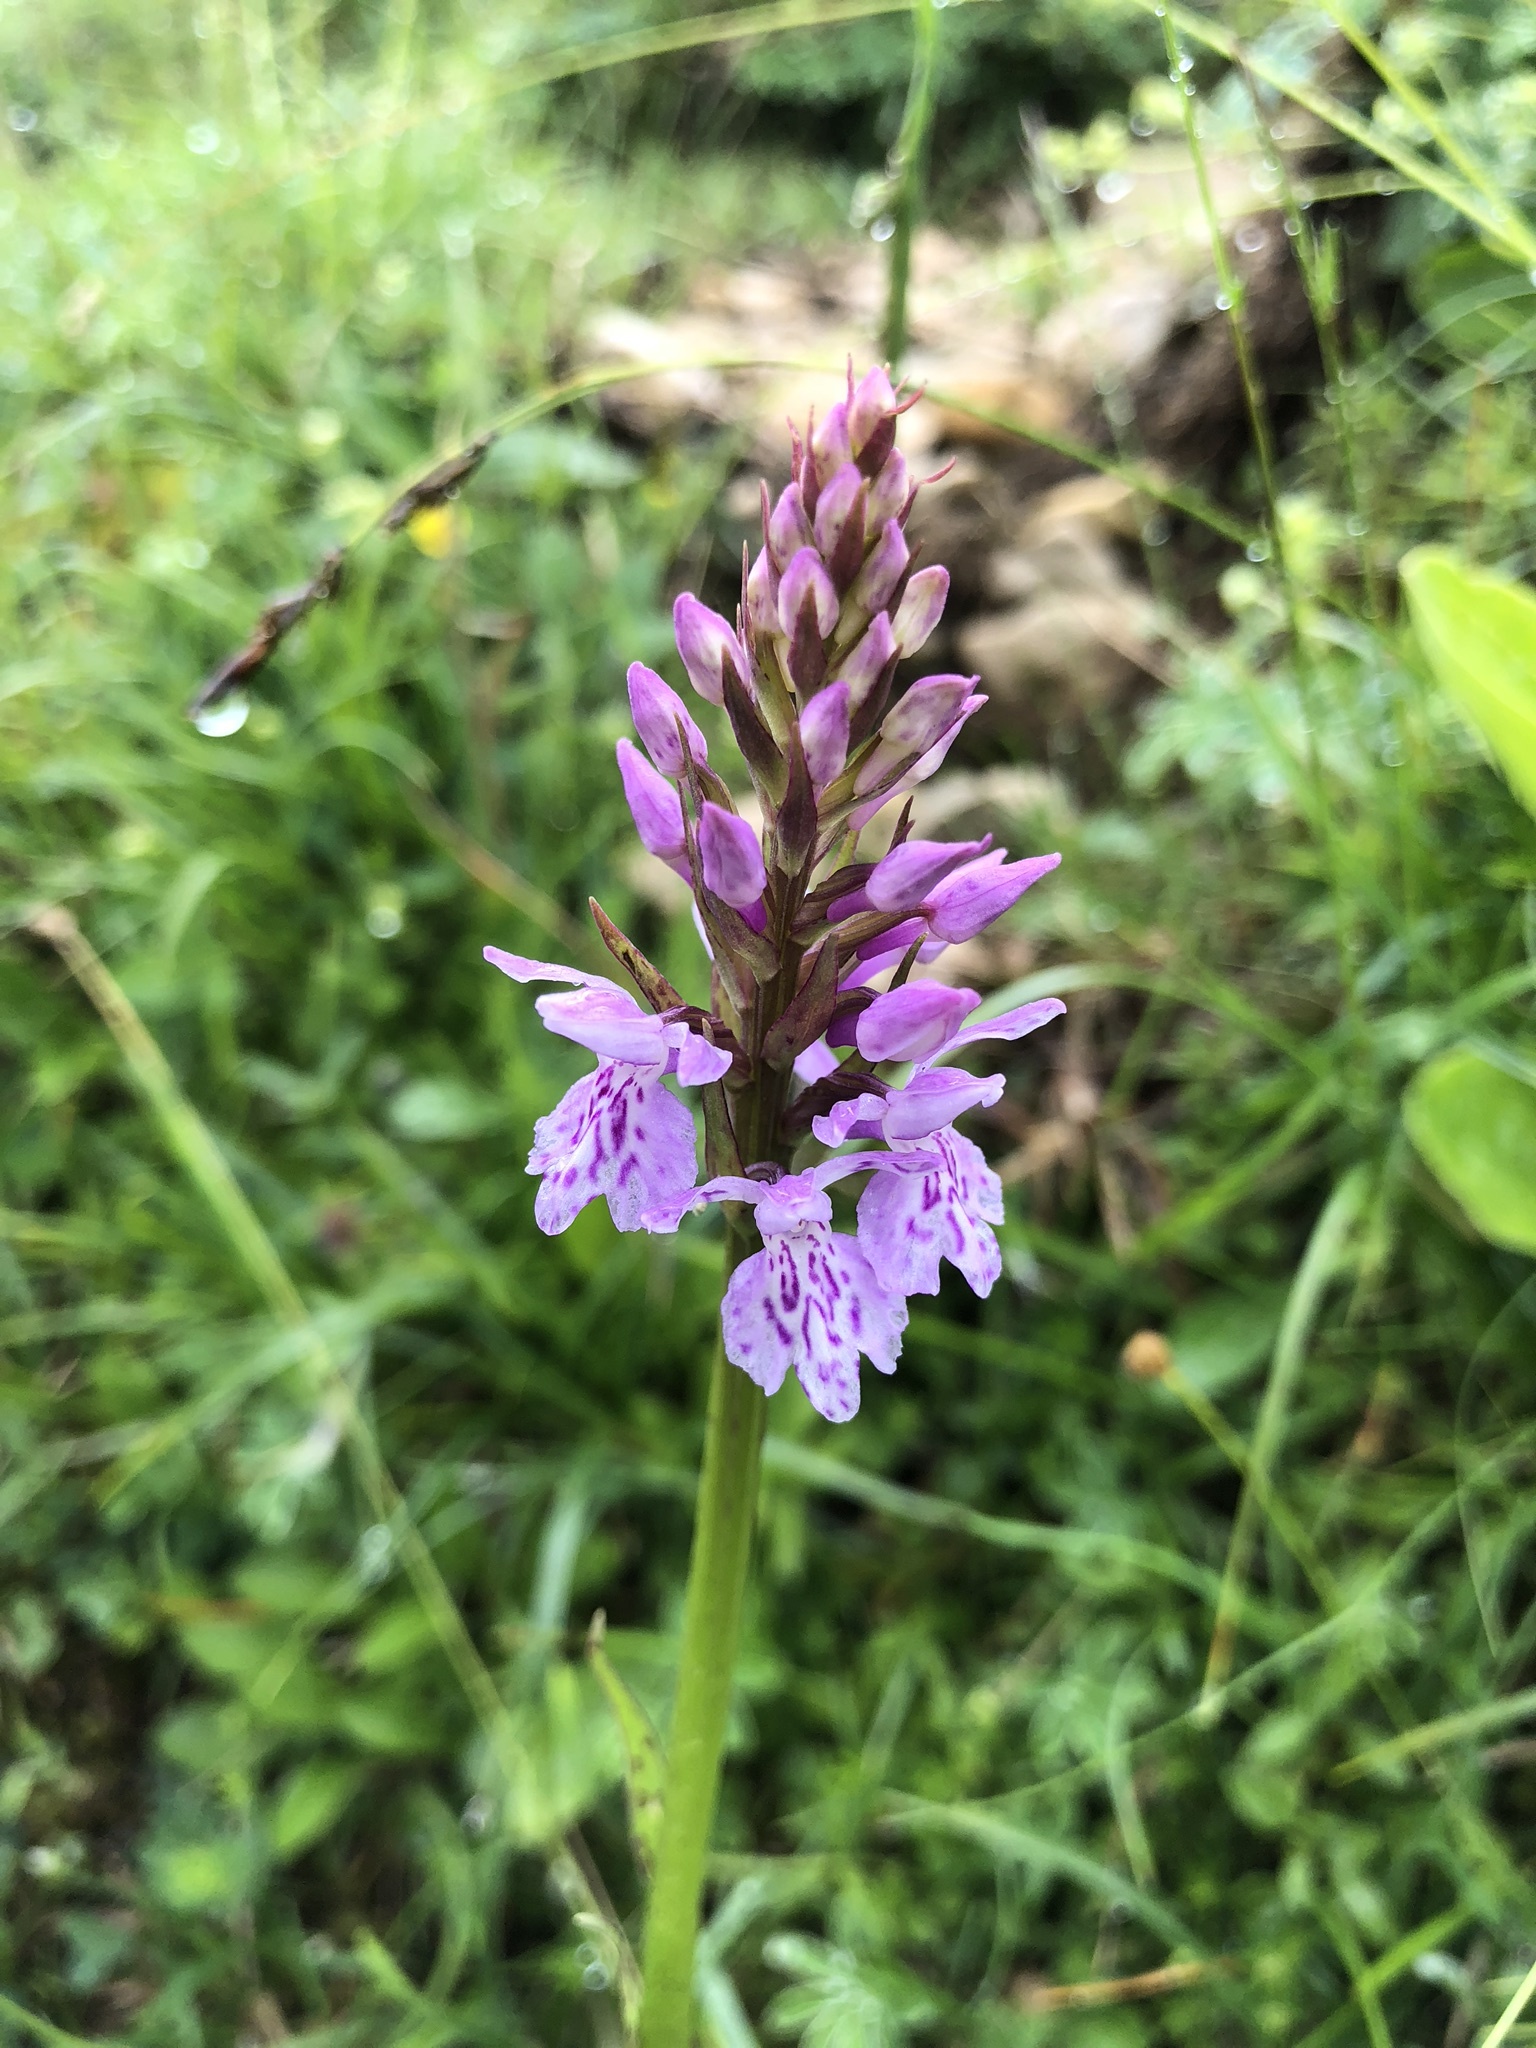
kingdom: Plantae
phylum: Tracheophyta
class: Liliopsida
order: Asparagales
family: Orchidaceae
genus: Dactylorhiza
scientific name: Dactylorhiza maculata
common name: Heath spotted-orchid
